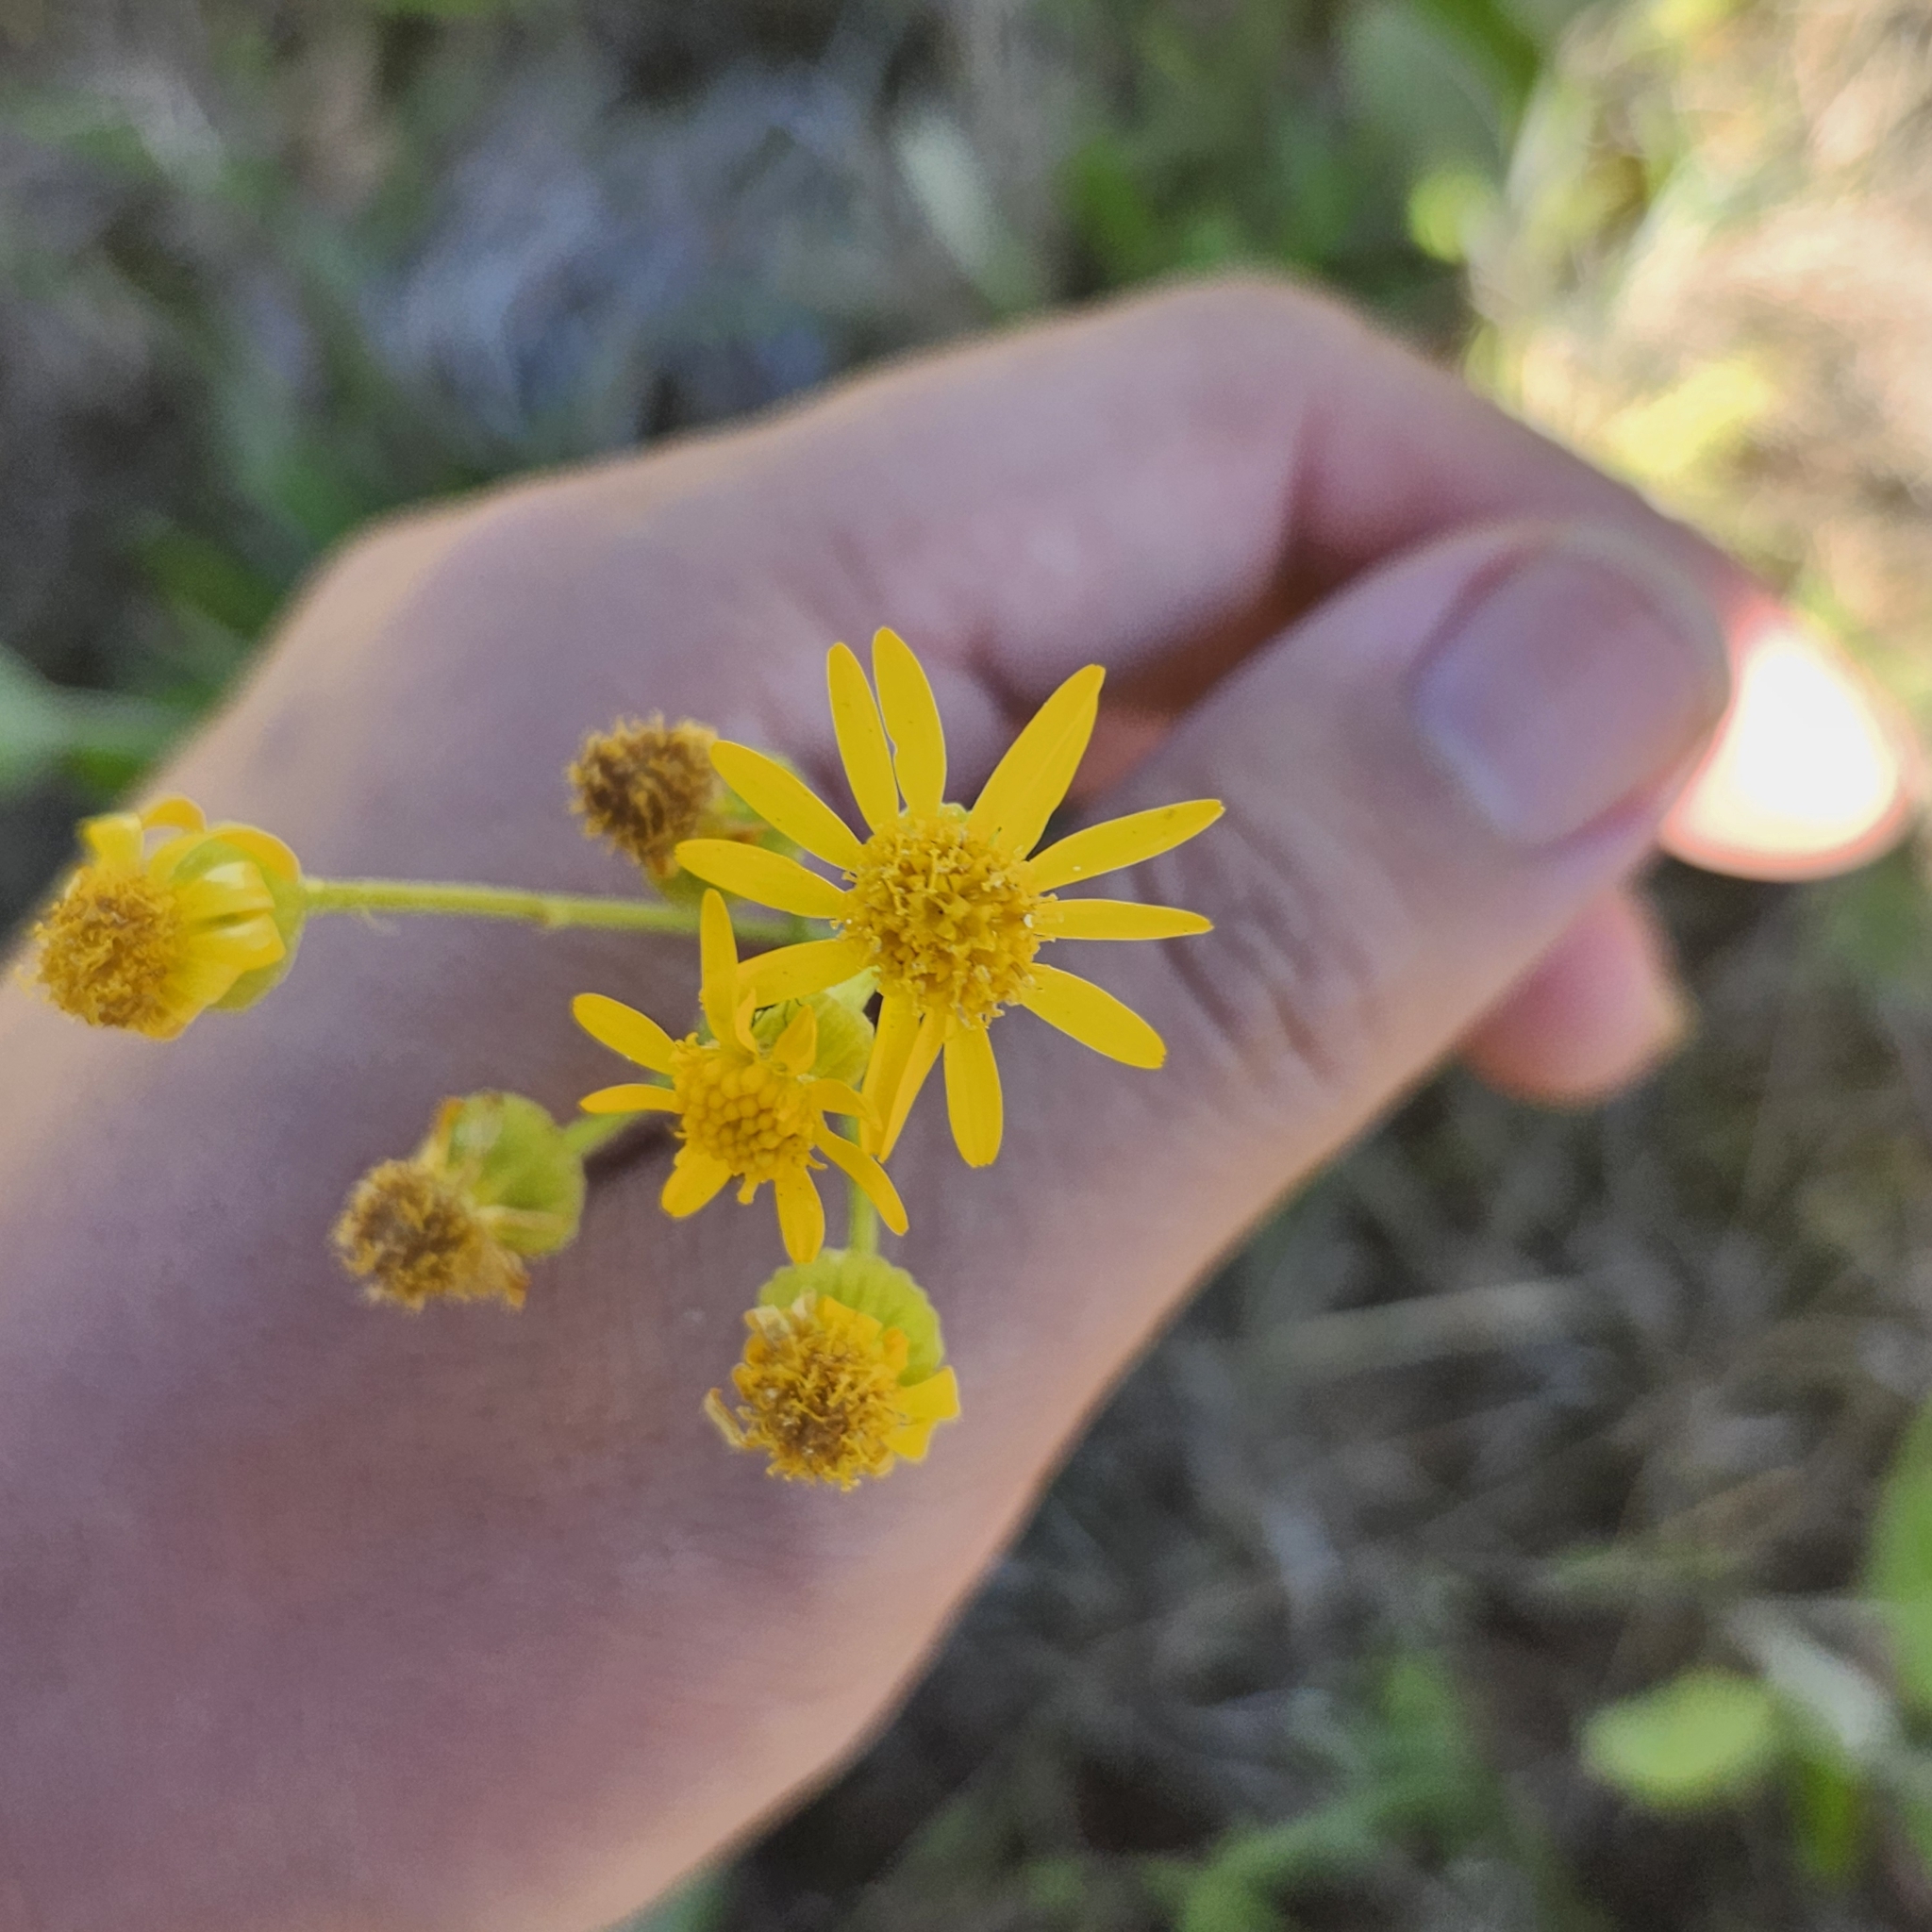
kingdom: Plantae
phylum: Tracheophyta
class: Magnoliopsida
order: Asterales
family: Asteraceae
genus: Packera
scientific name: Packera dubia
